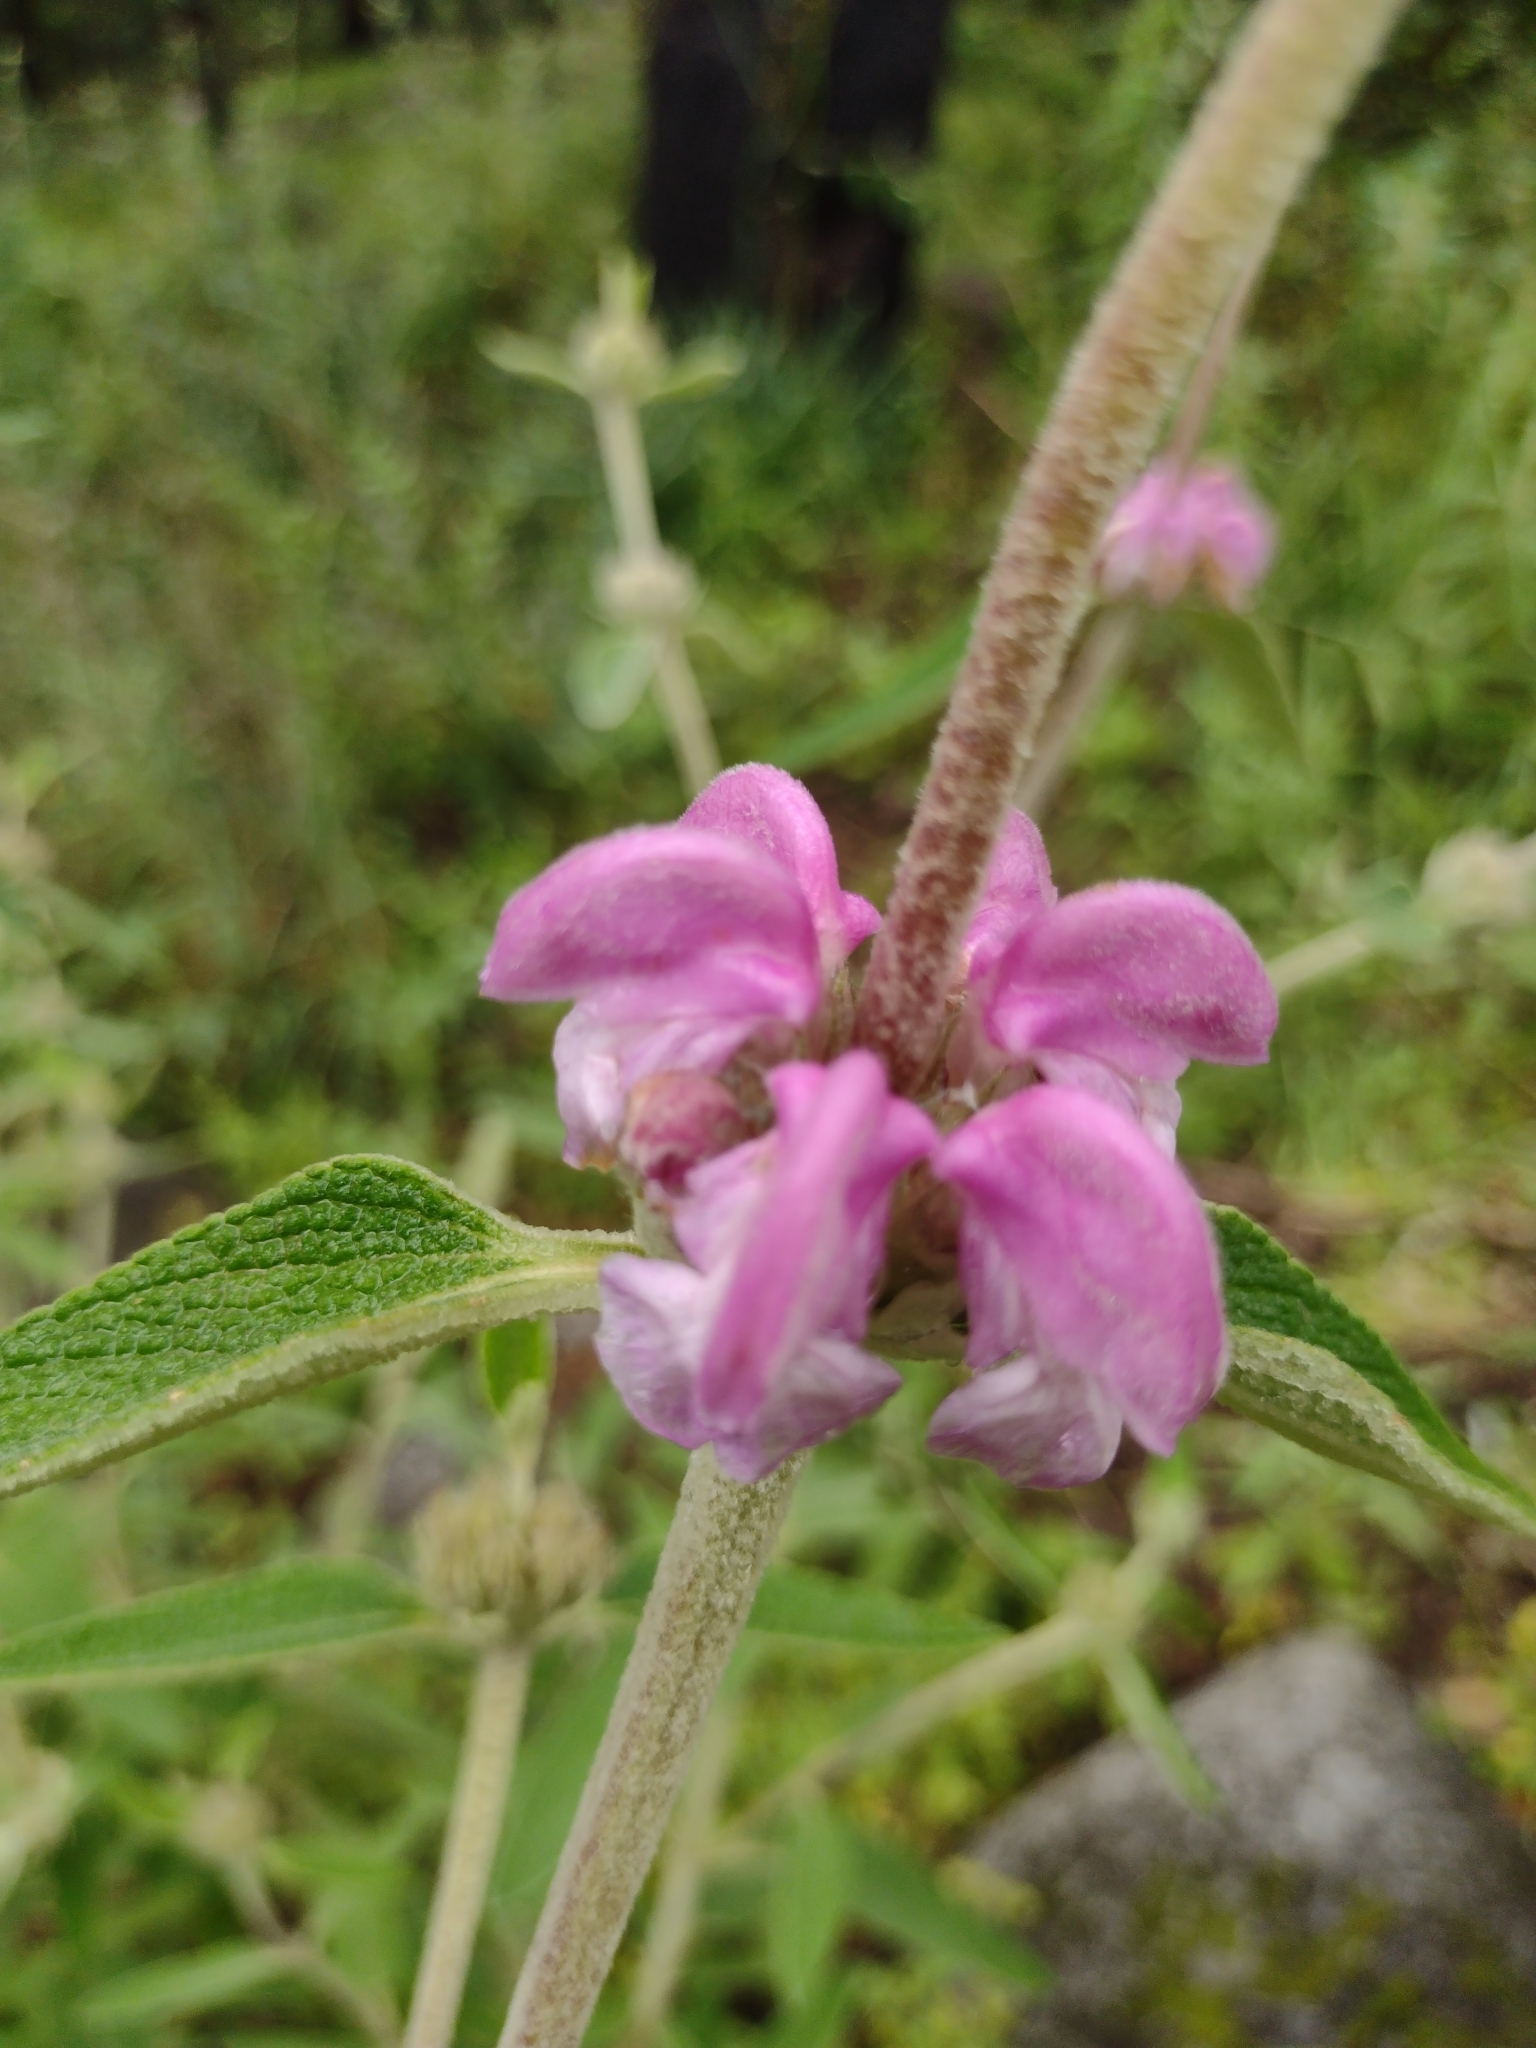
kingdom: Plantae
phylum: Tracheophyta
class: Magnoliopsida
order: Lamiales
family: Lamiaceae
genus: Phlomis
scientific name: Phlomis purpurea
